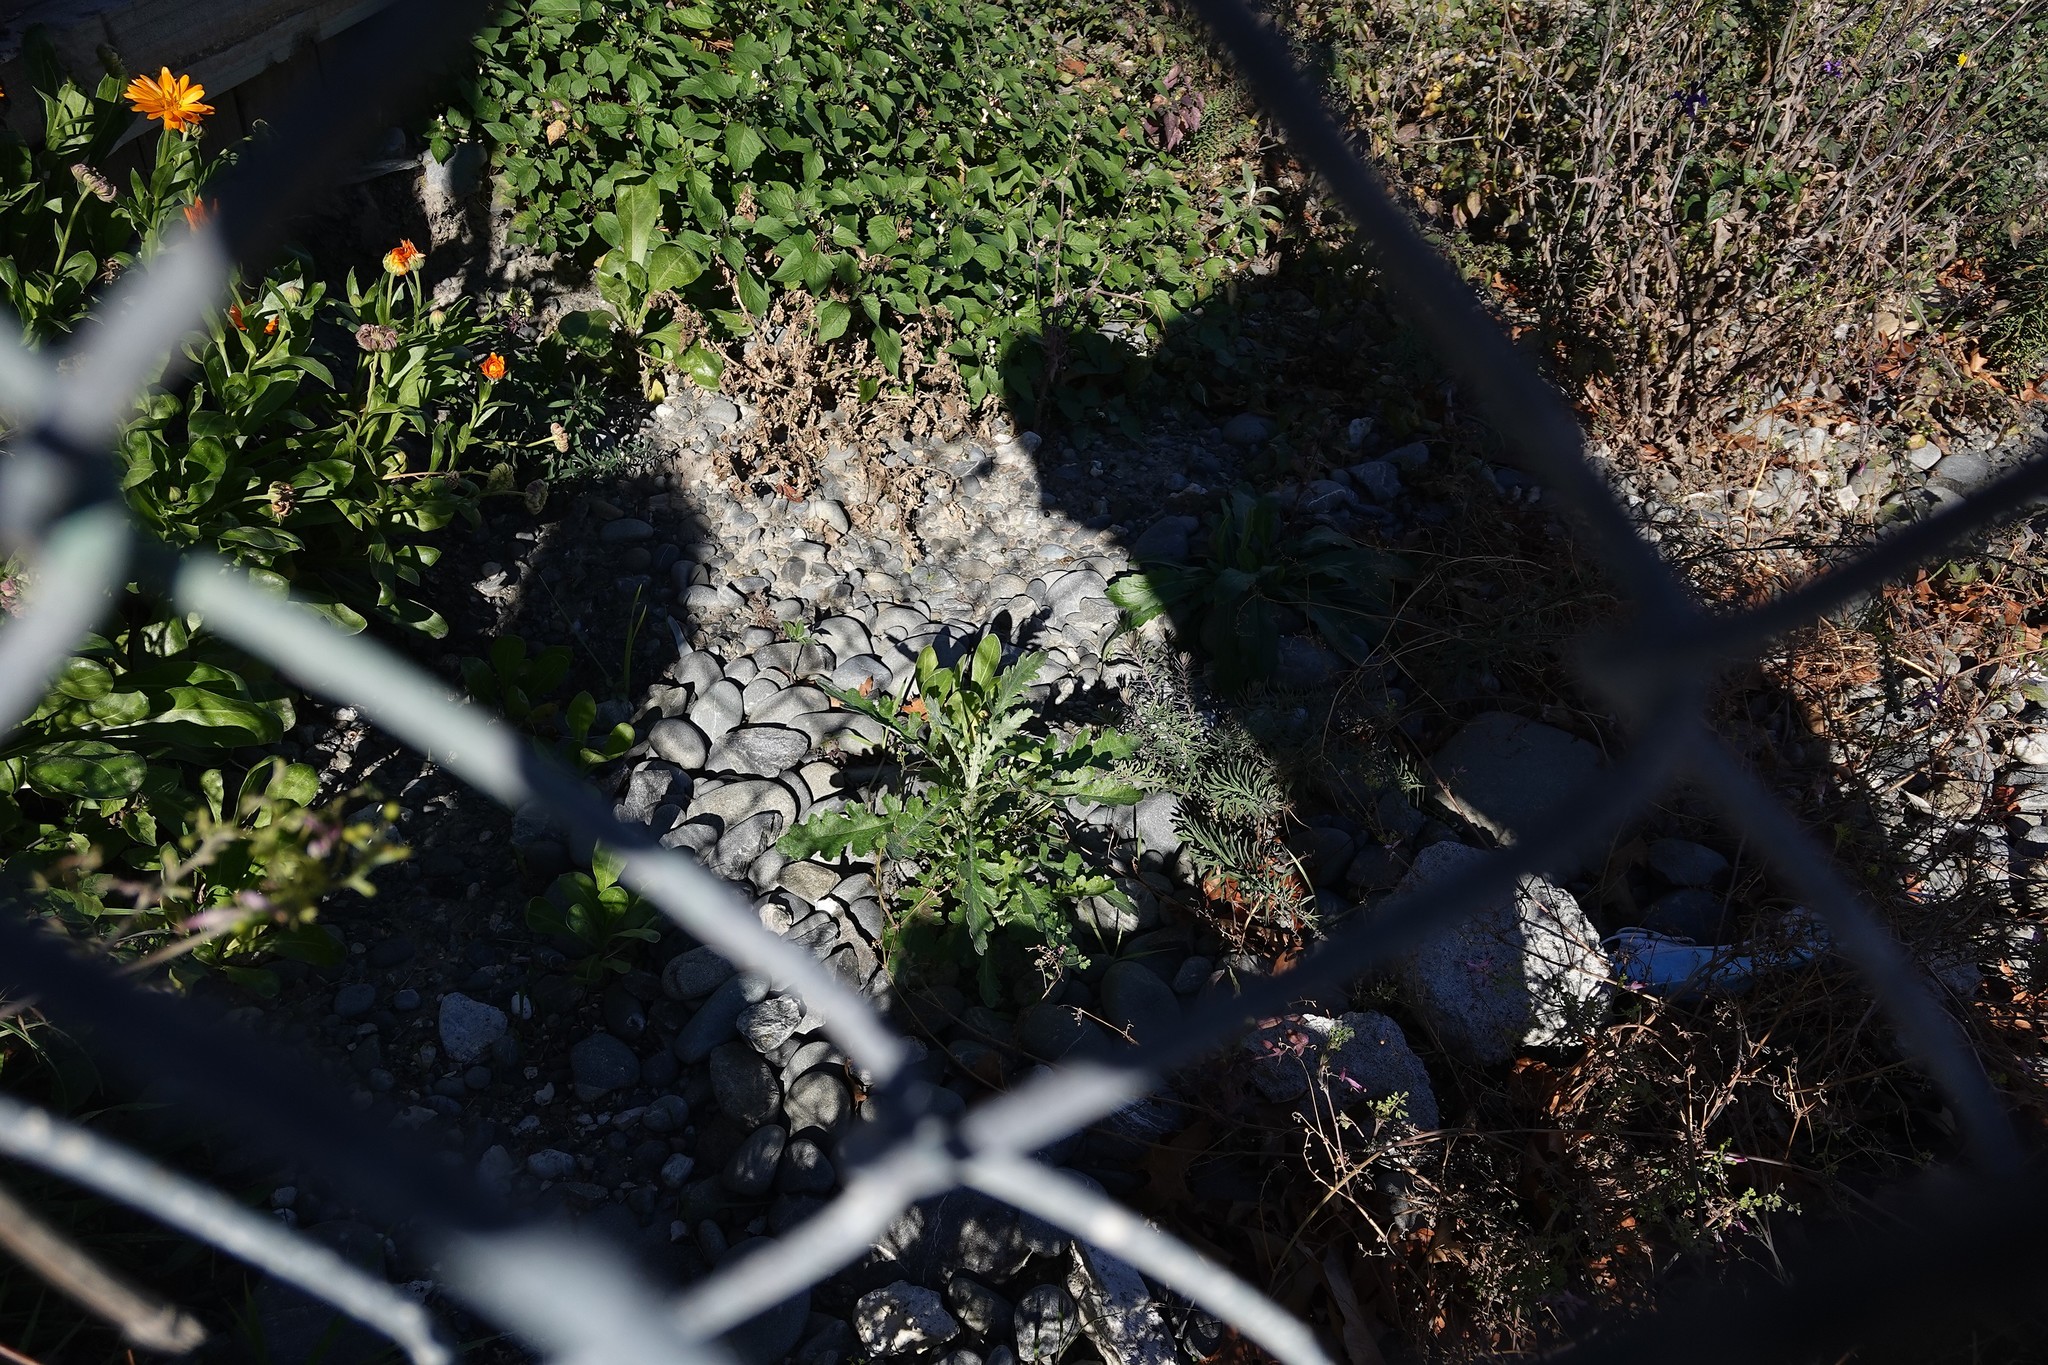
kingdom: Plantae
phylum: Tracheophyta
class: Magnoliopsida
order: Asterales
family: Asteraceae
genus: Senecio
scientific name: Senecio glomeratus
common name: Cutleaf burnweed
